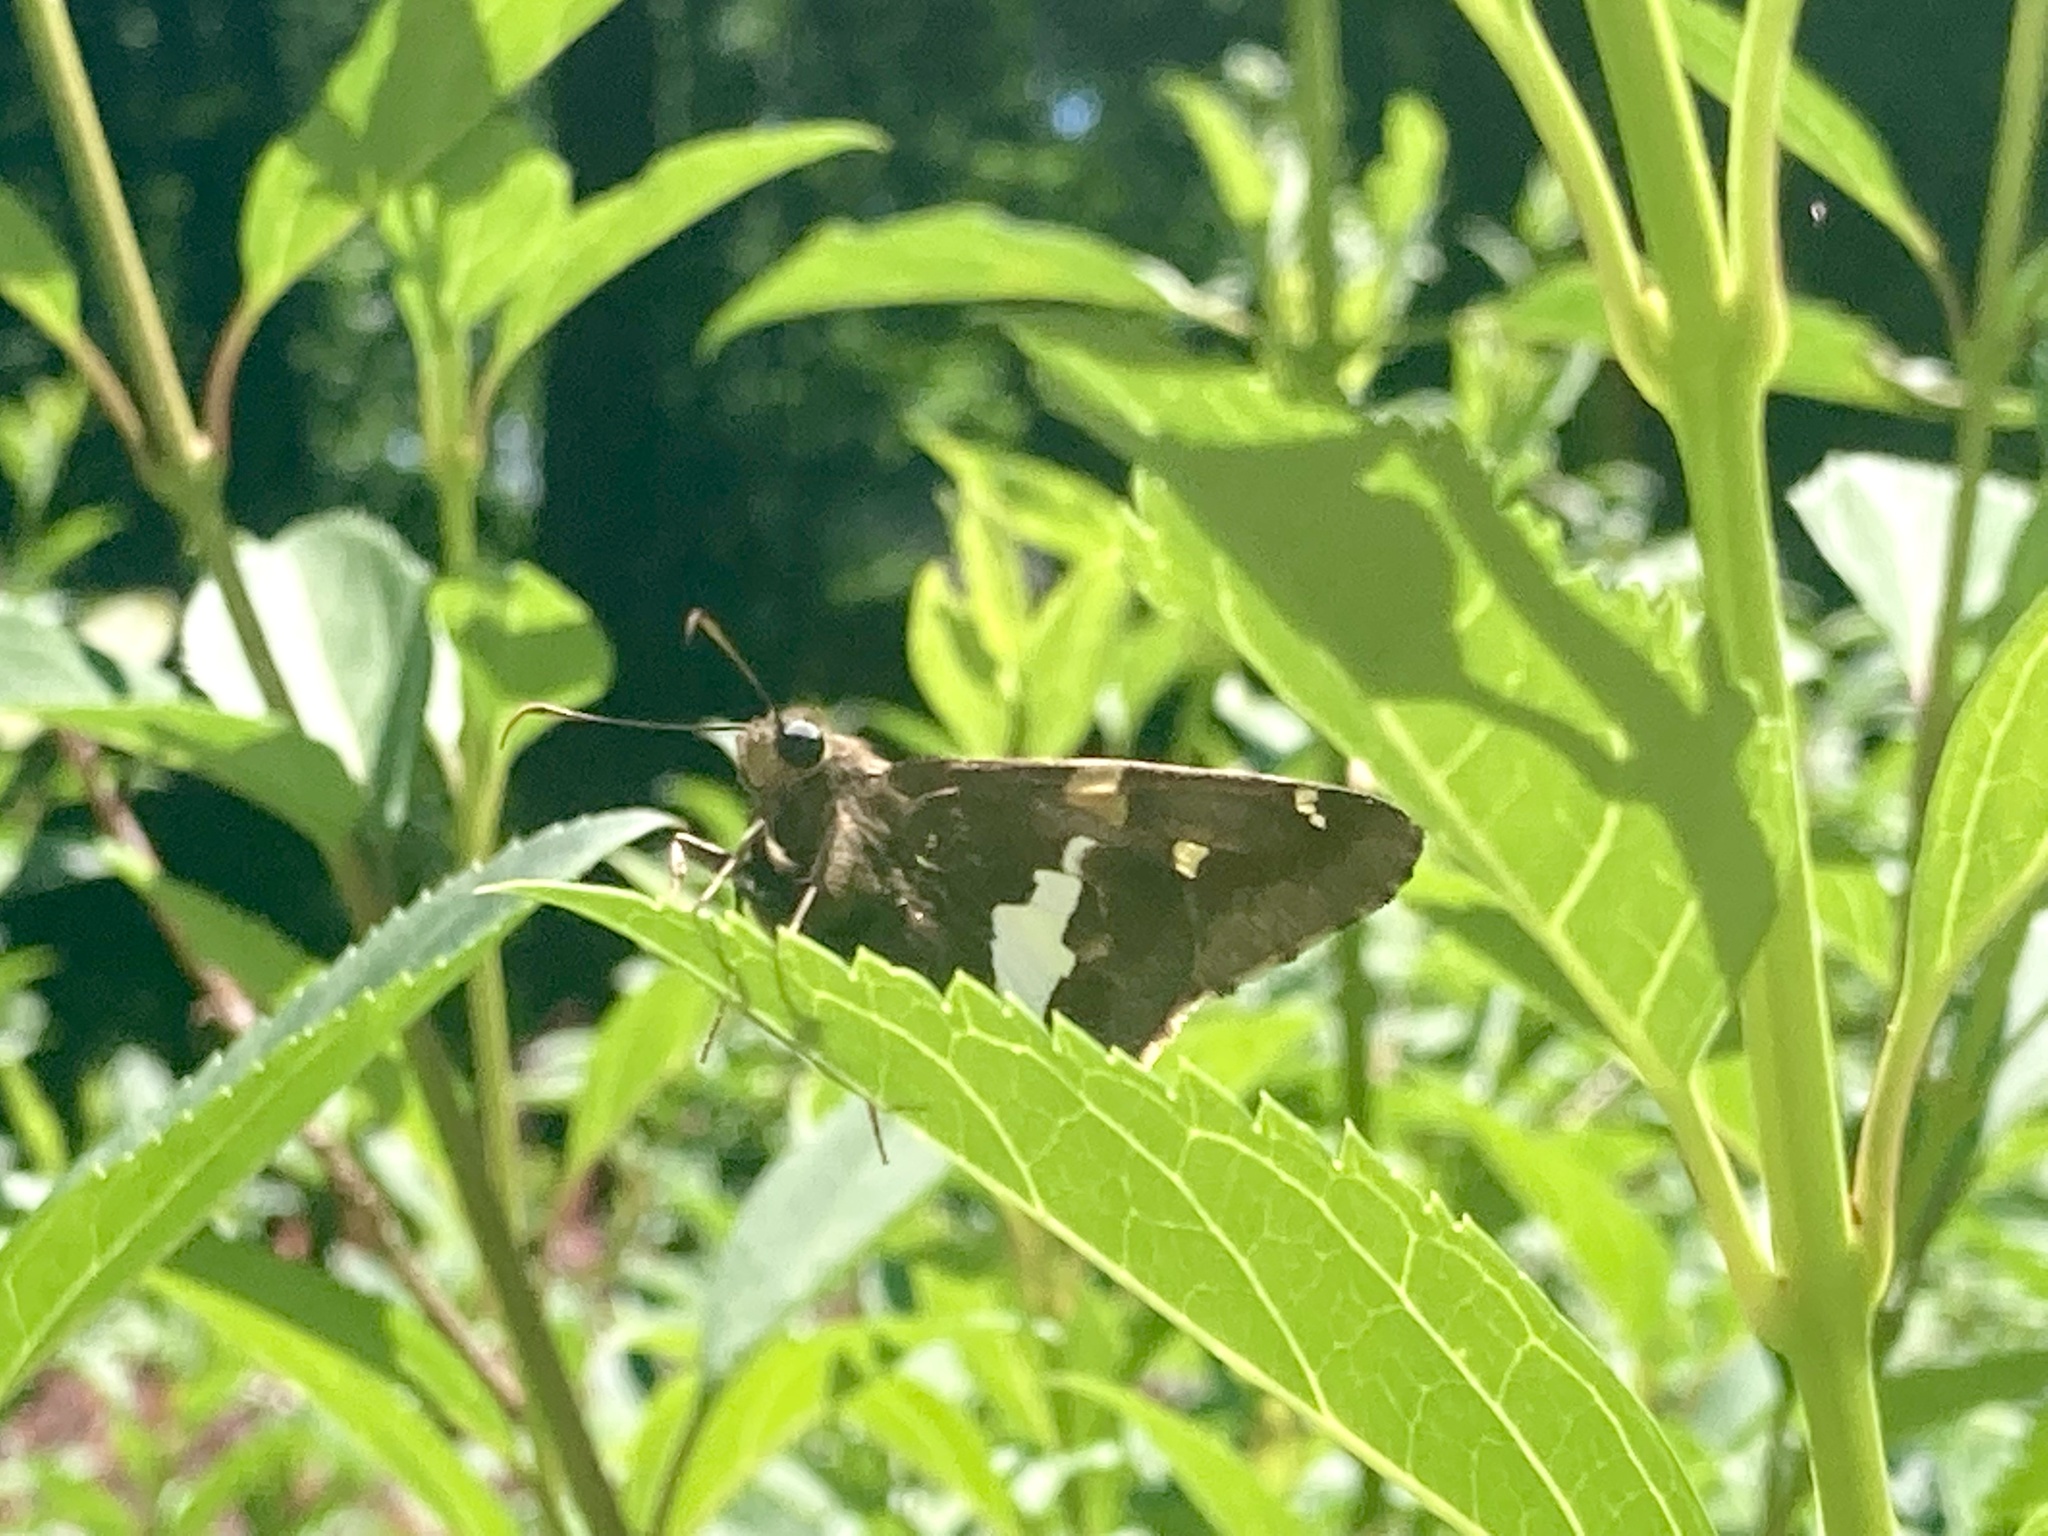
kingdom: Animalia
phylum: Arthropoda
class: Insecta
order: Lepidoptera
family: Hesperiidae
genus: Epargyreus
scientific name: Epargyreus clarus
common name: Silver-spotted skipper
